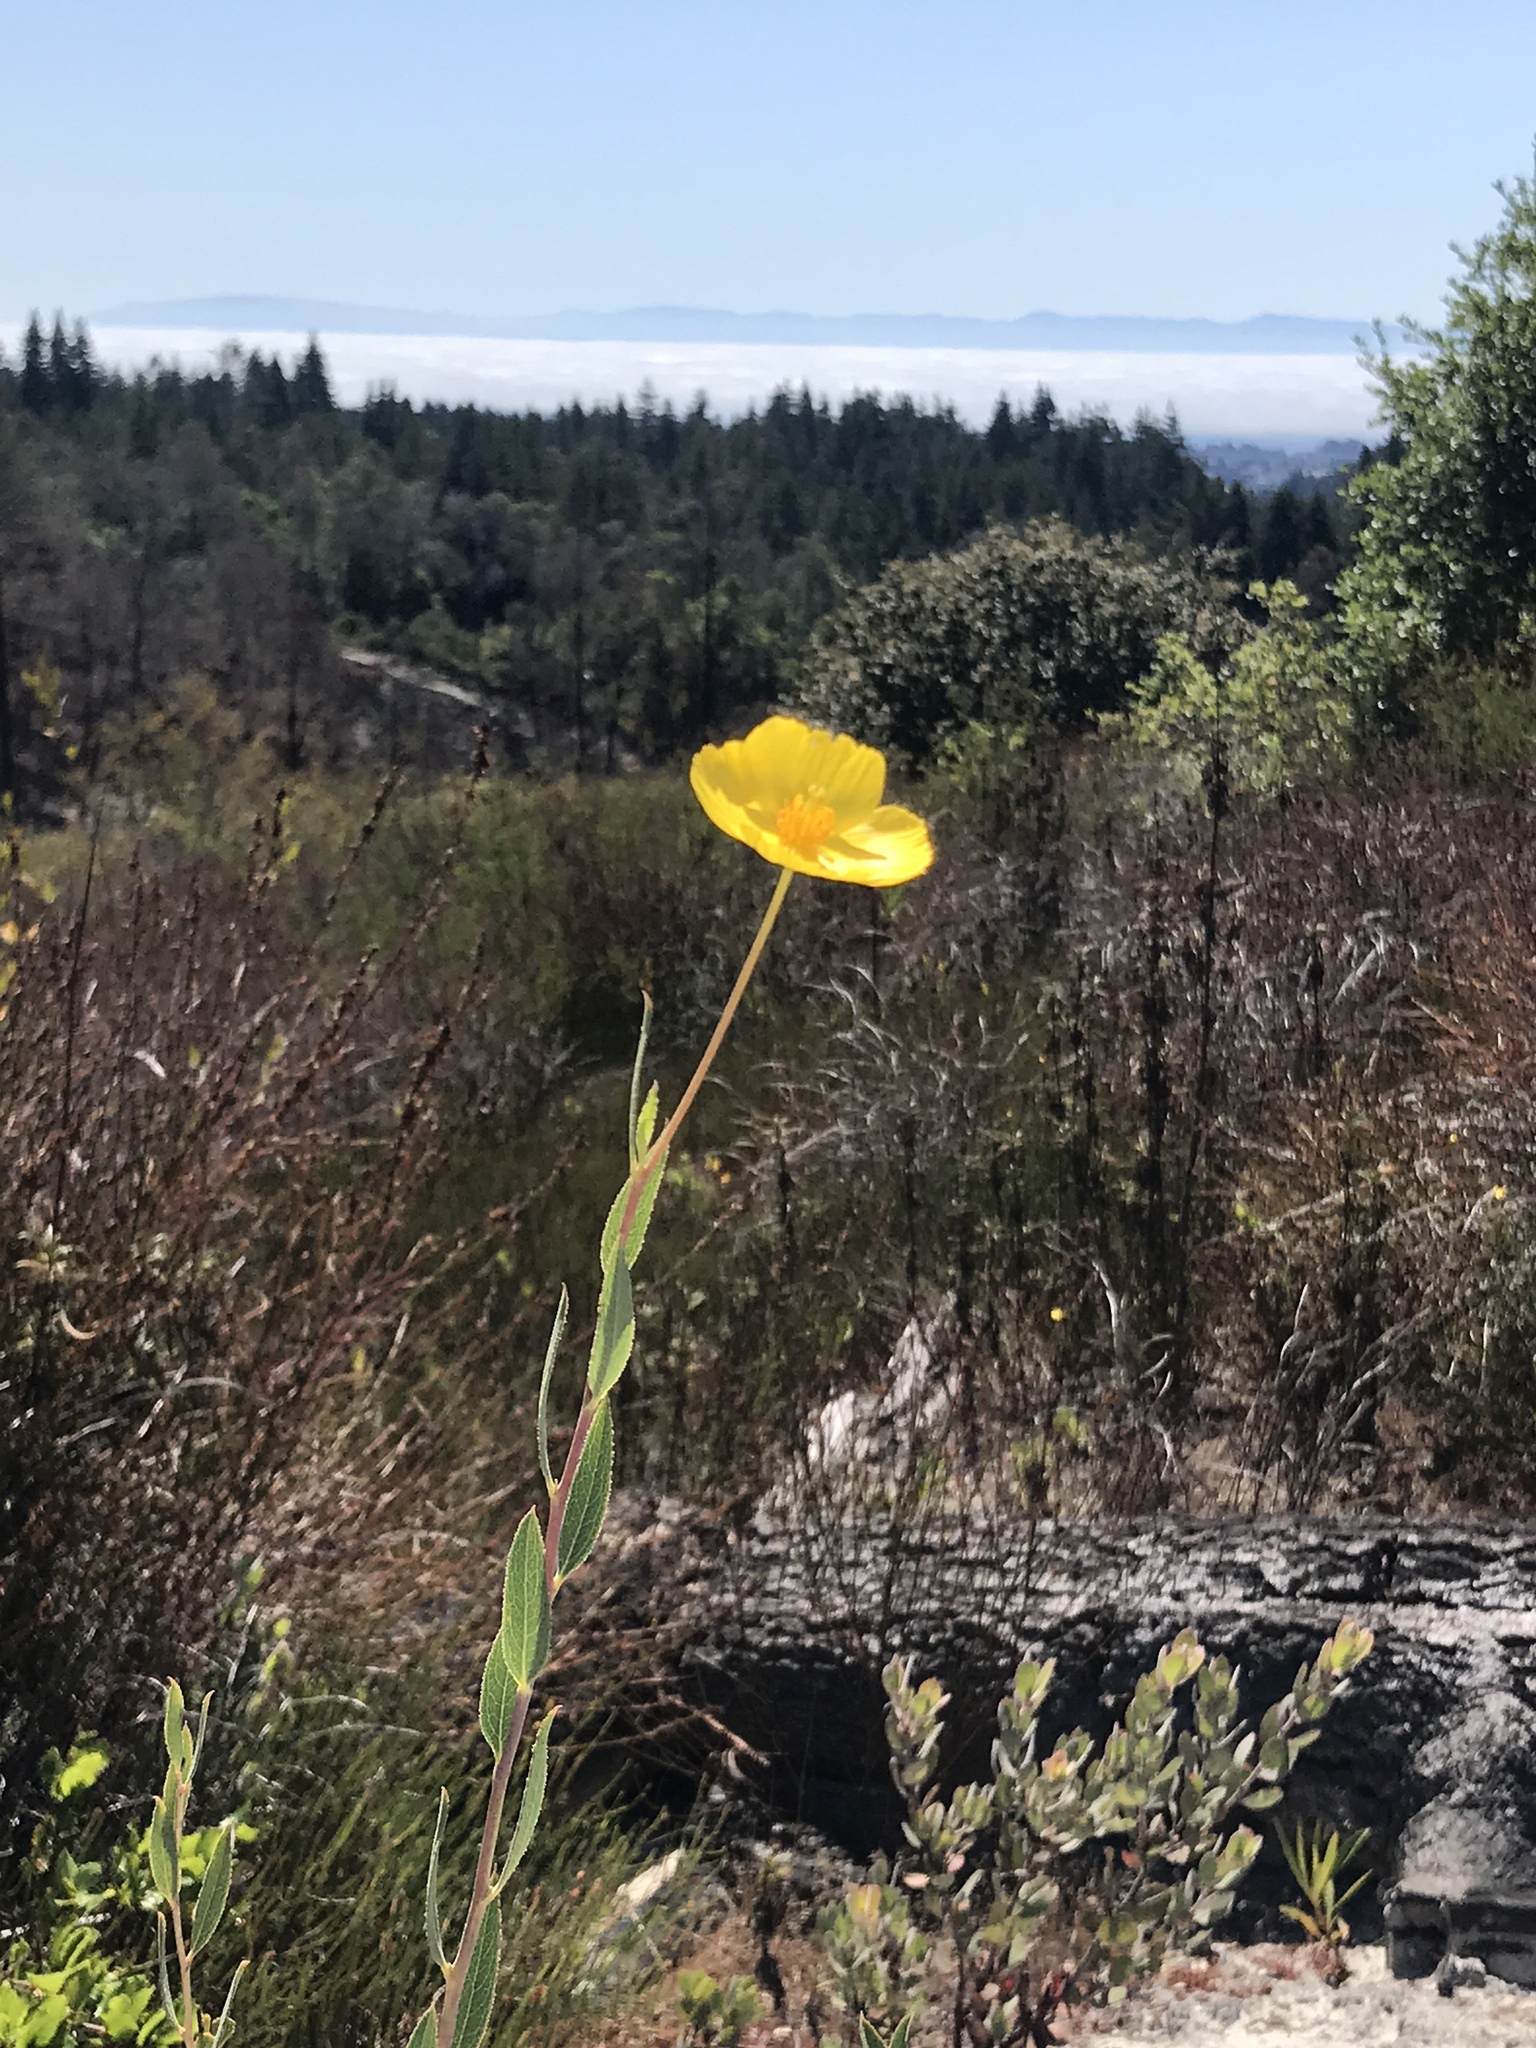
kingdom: Plantae
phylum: Tracheophyta
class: Magnoliopsida
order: Ranunculales
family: Papaveraceae
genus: Dendromecon
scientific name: Dendromecon rigida
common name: Tree poppy
